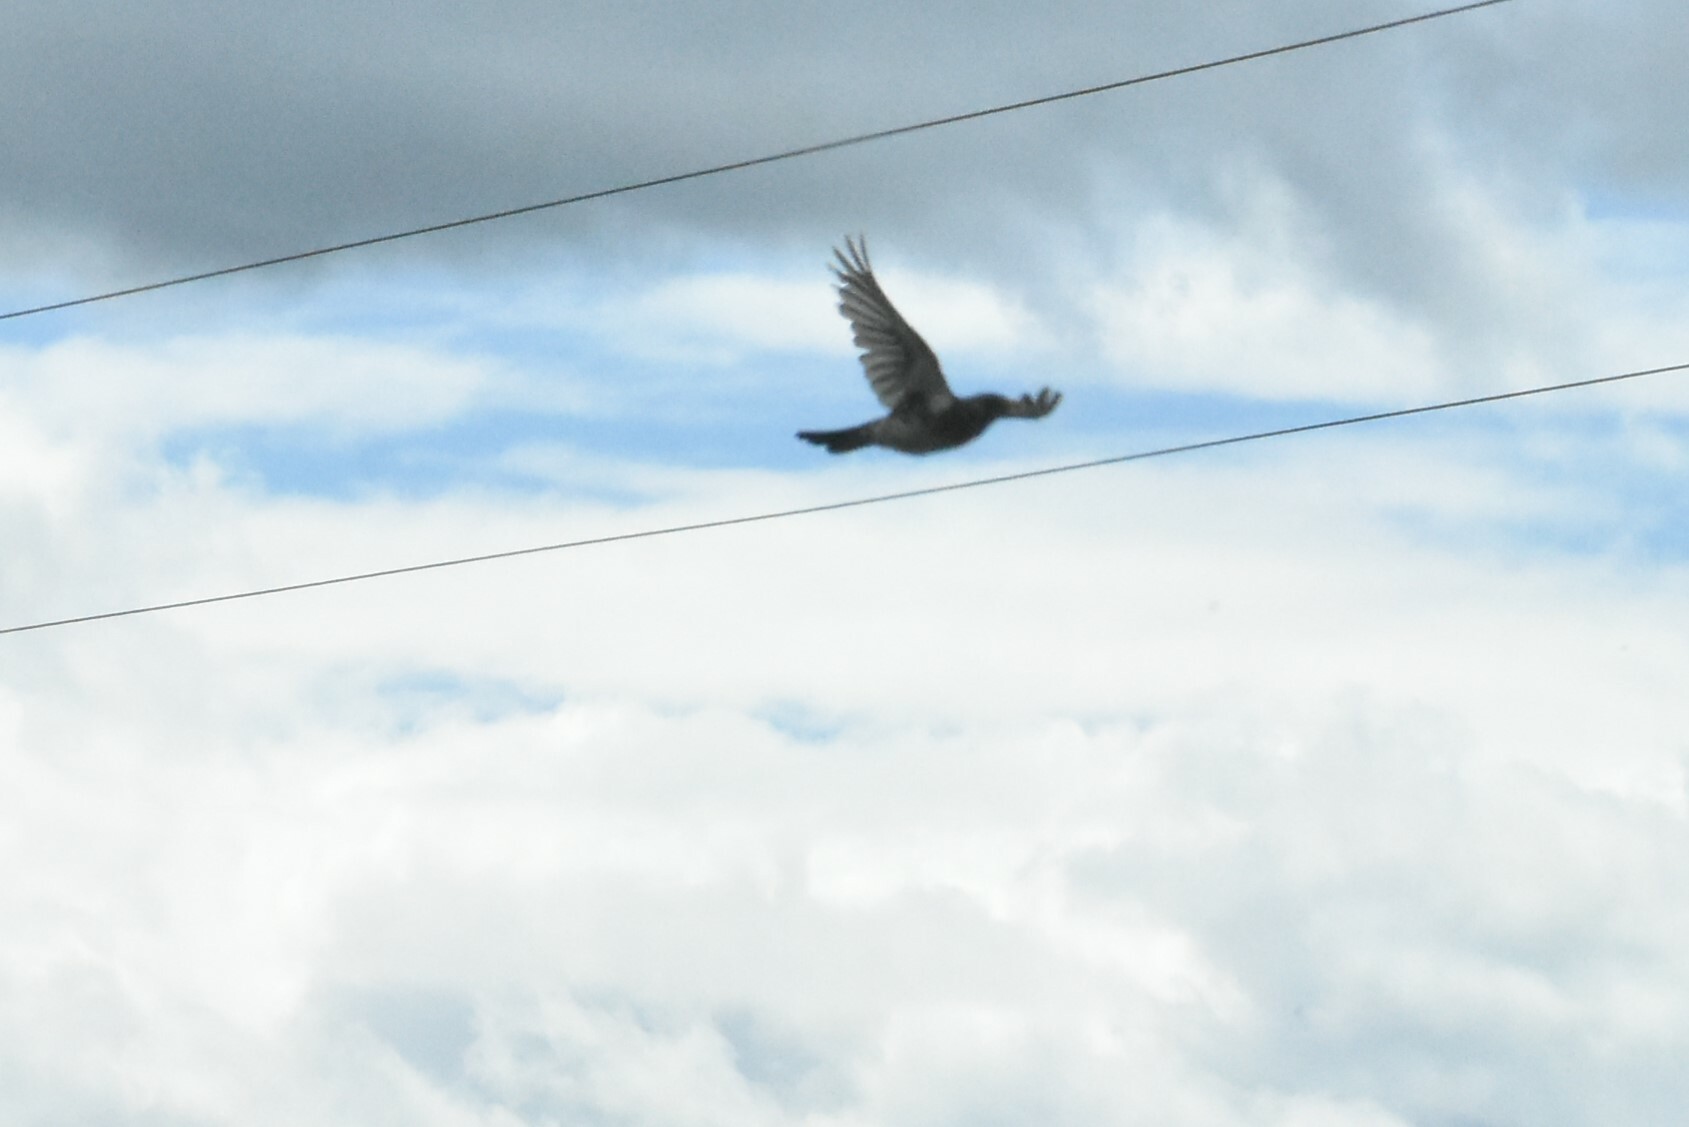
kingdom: Animalia
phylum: Chordata
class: Aves
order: Passeriformes
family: Turdidae
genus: Turdus
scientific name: Turdus pilaris
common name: Fieldfare
